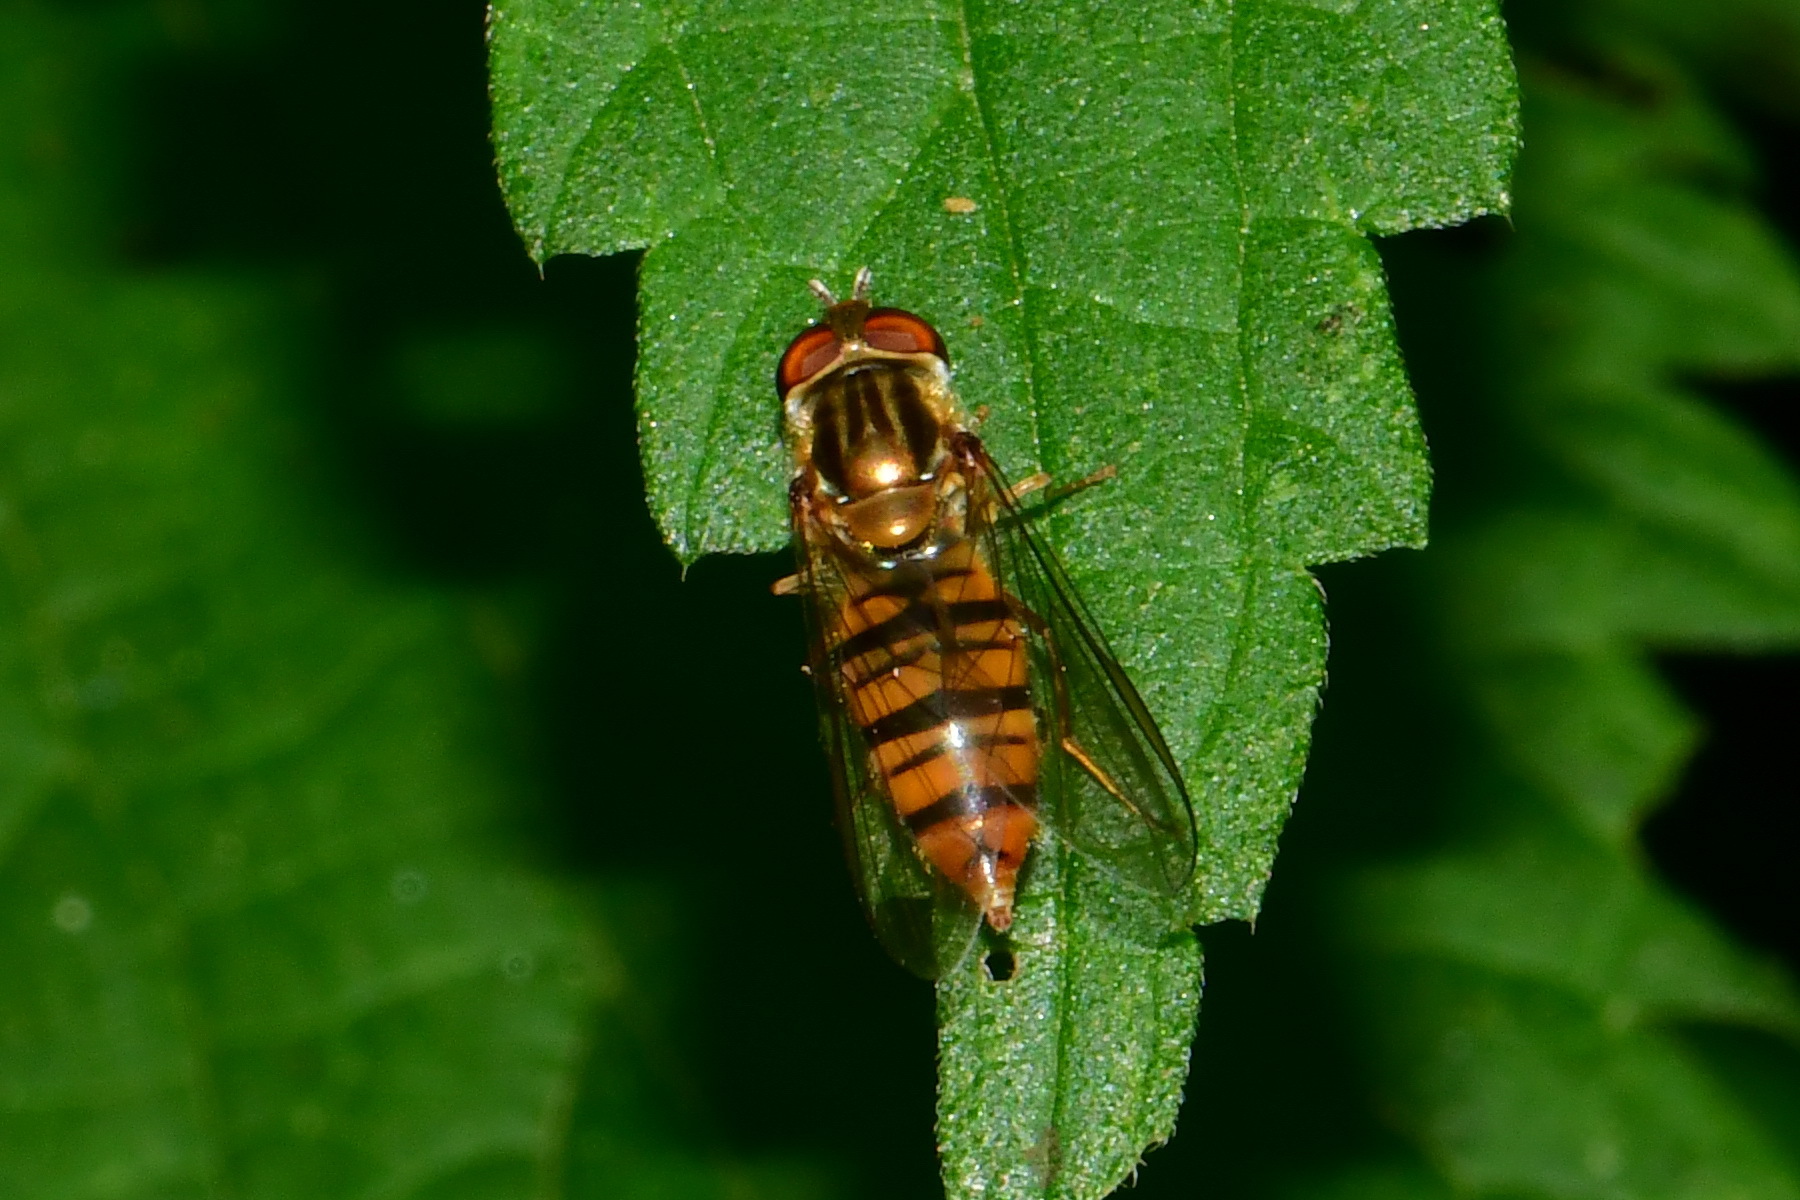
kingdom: Animalia
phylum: Arthropoda
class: Insecta
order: Diptera
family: Syrphidae
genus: Episyrphus
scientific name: Episyrphus balteatus
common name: Marmalade hoverfly
